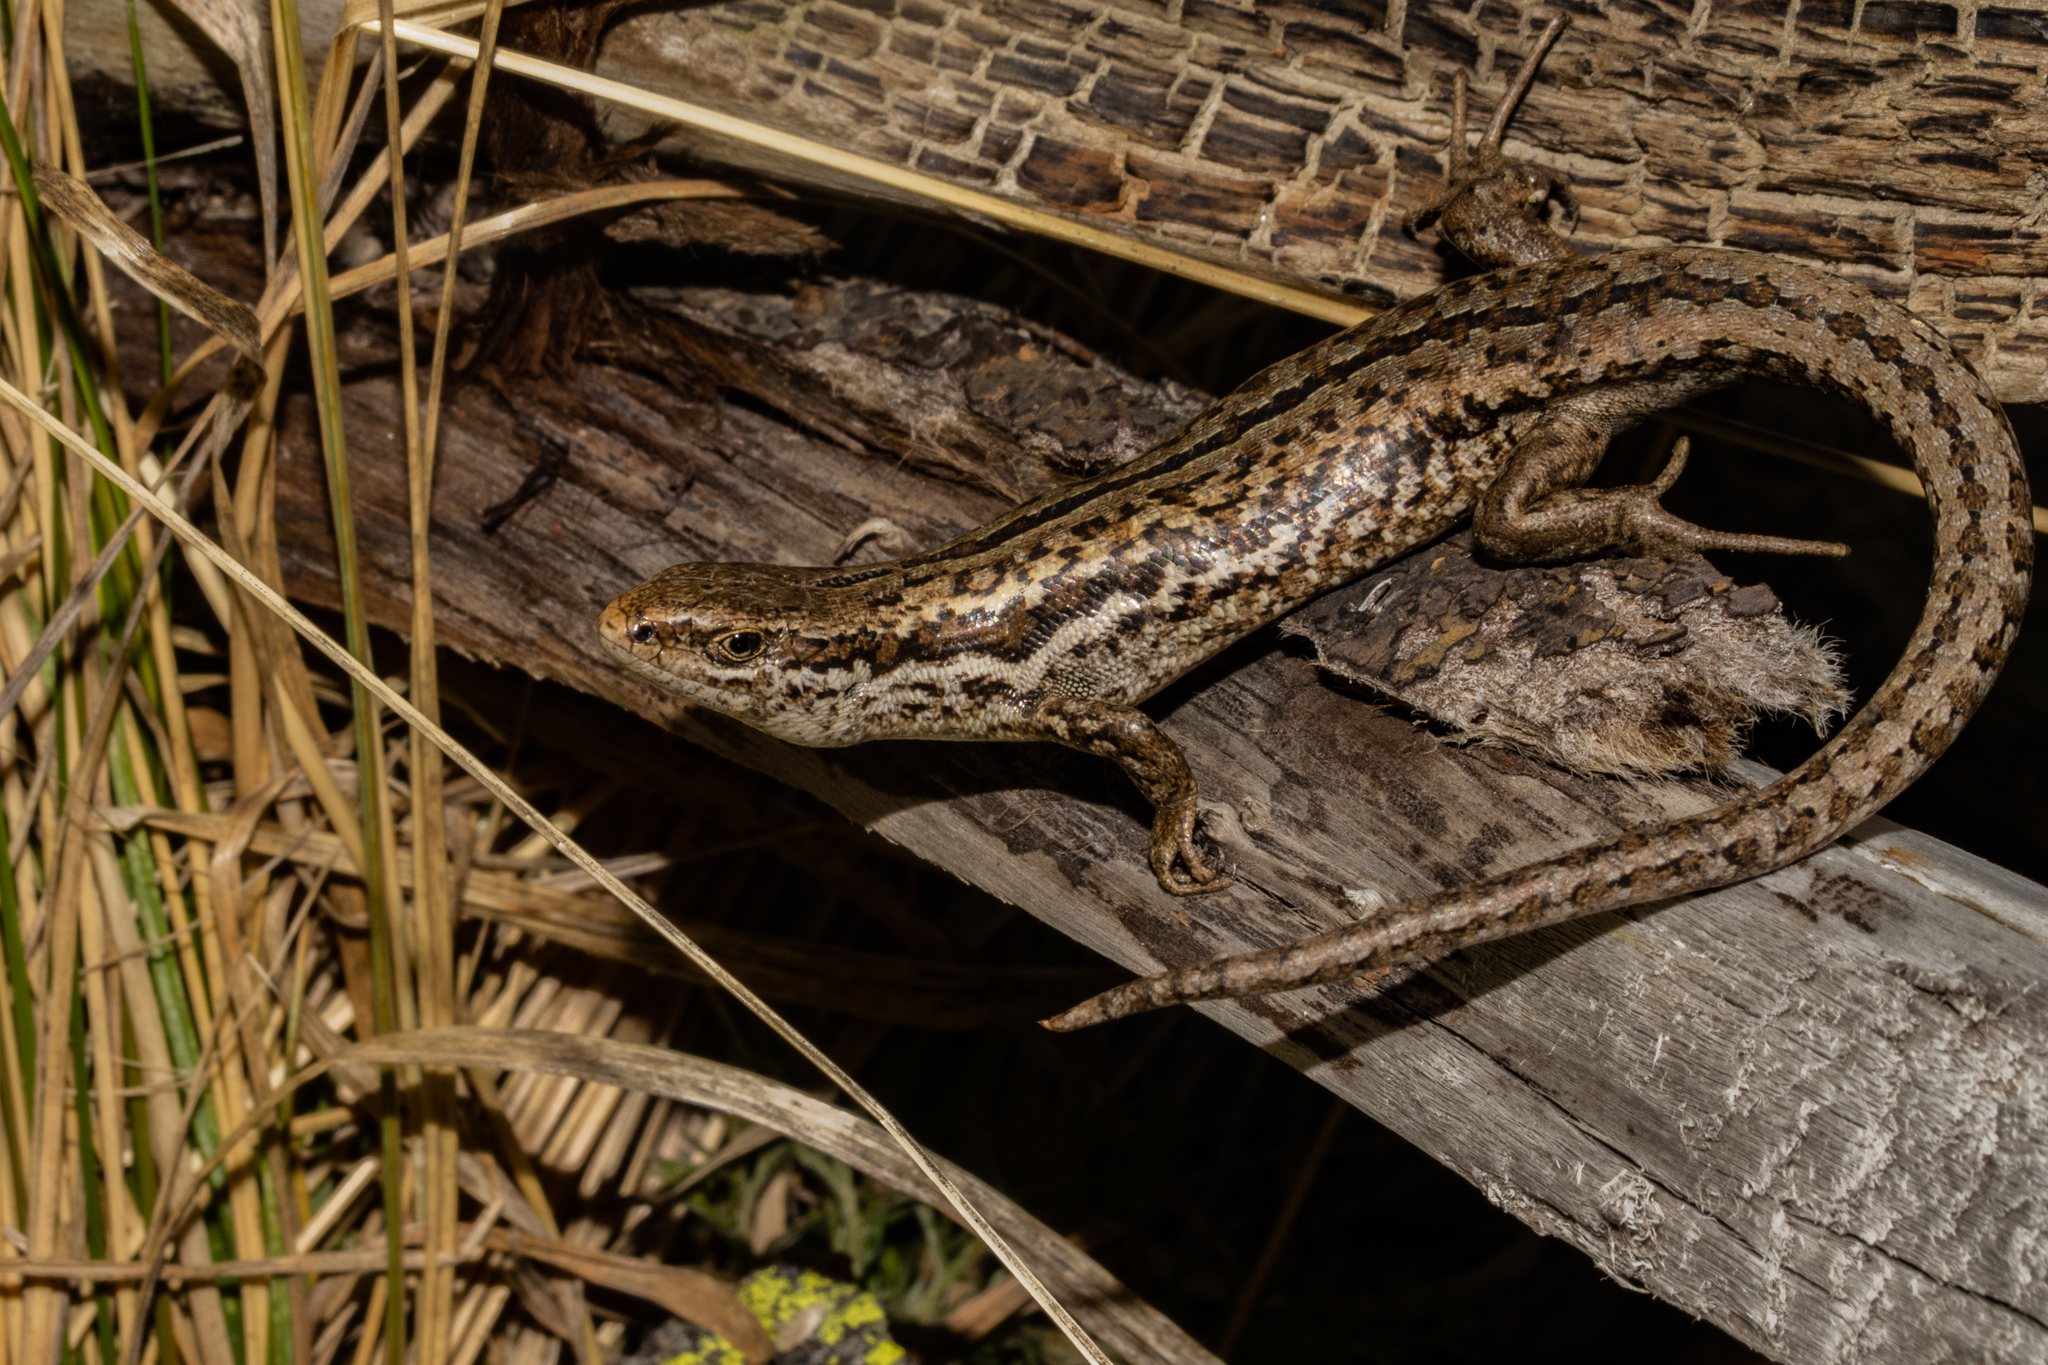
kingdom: Animalia
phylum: Chordata
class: Squamata
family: Scincidae
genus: Oligosoma
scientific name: Oligosoma maccanni
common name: Mccann’s skink
